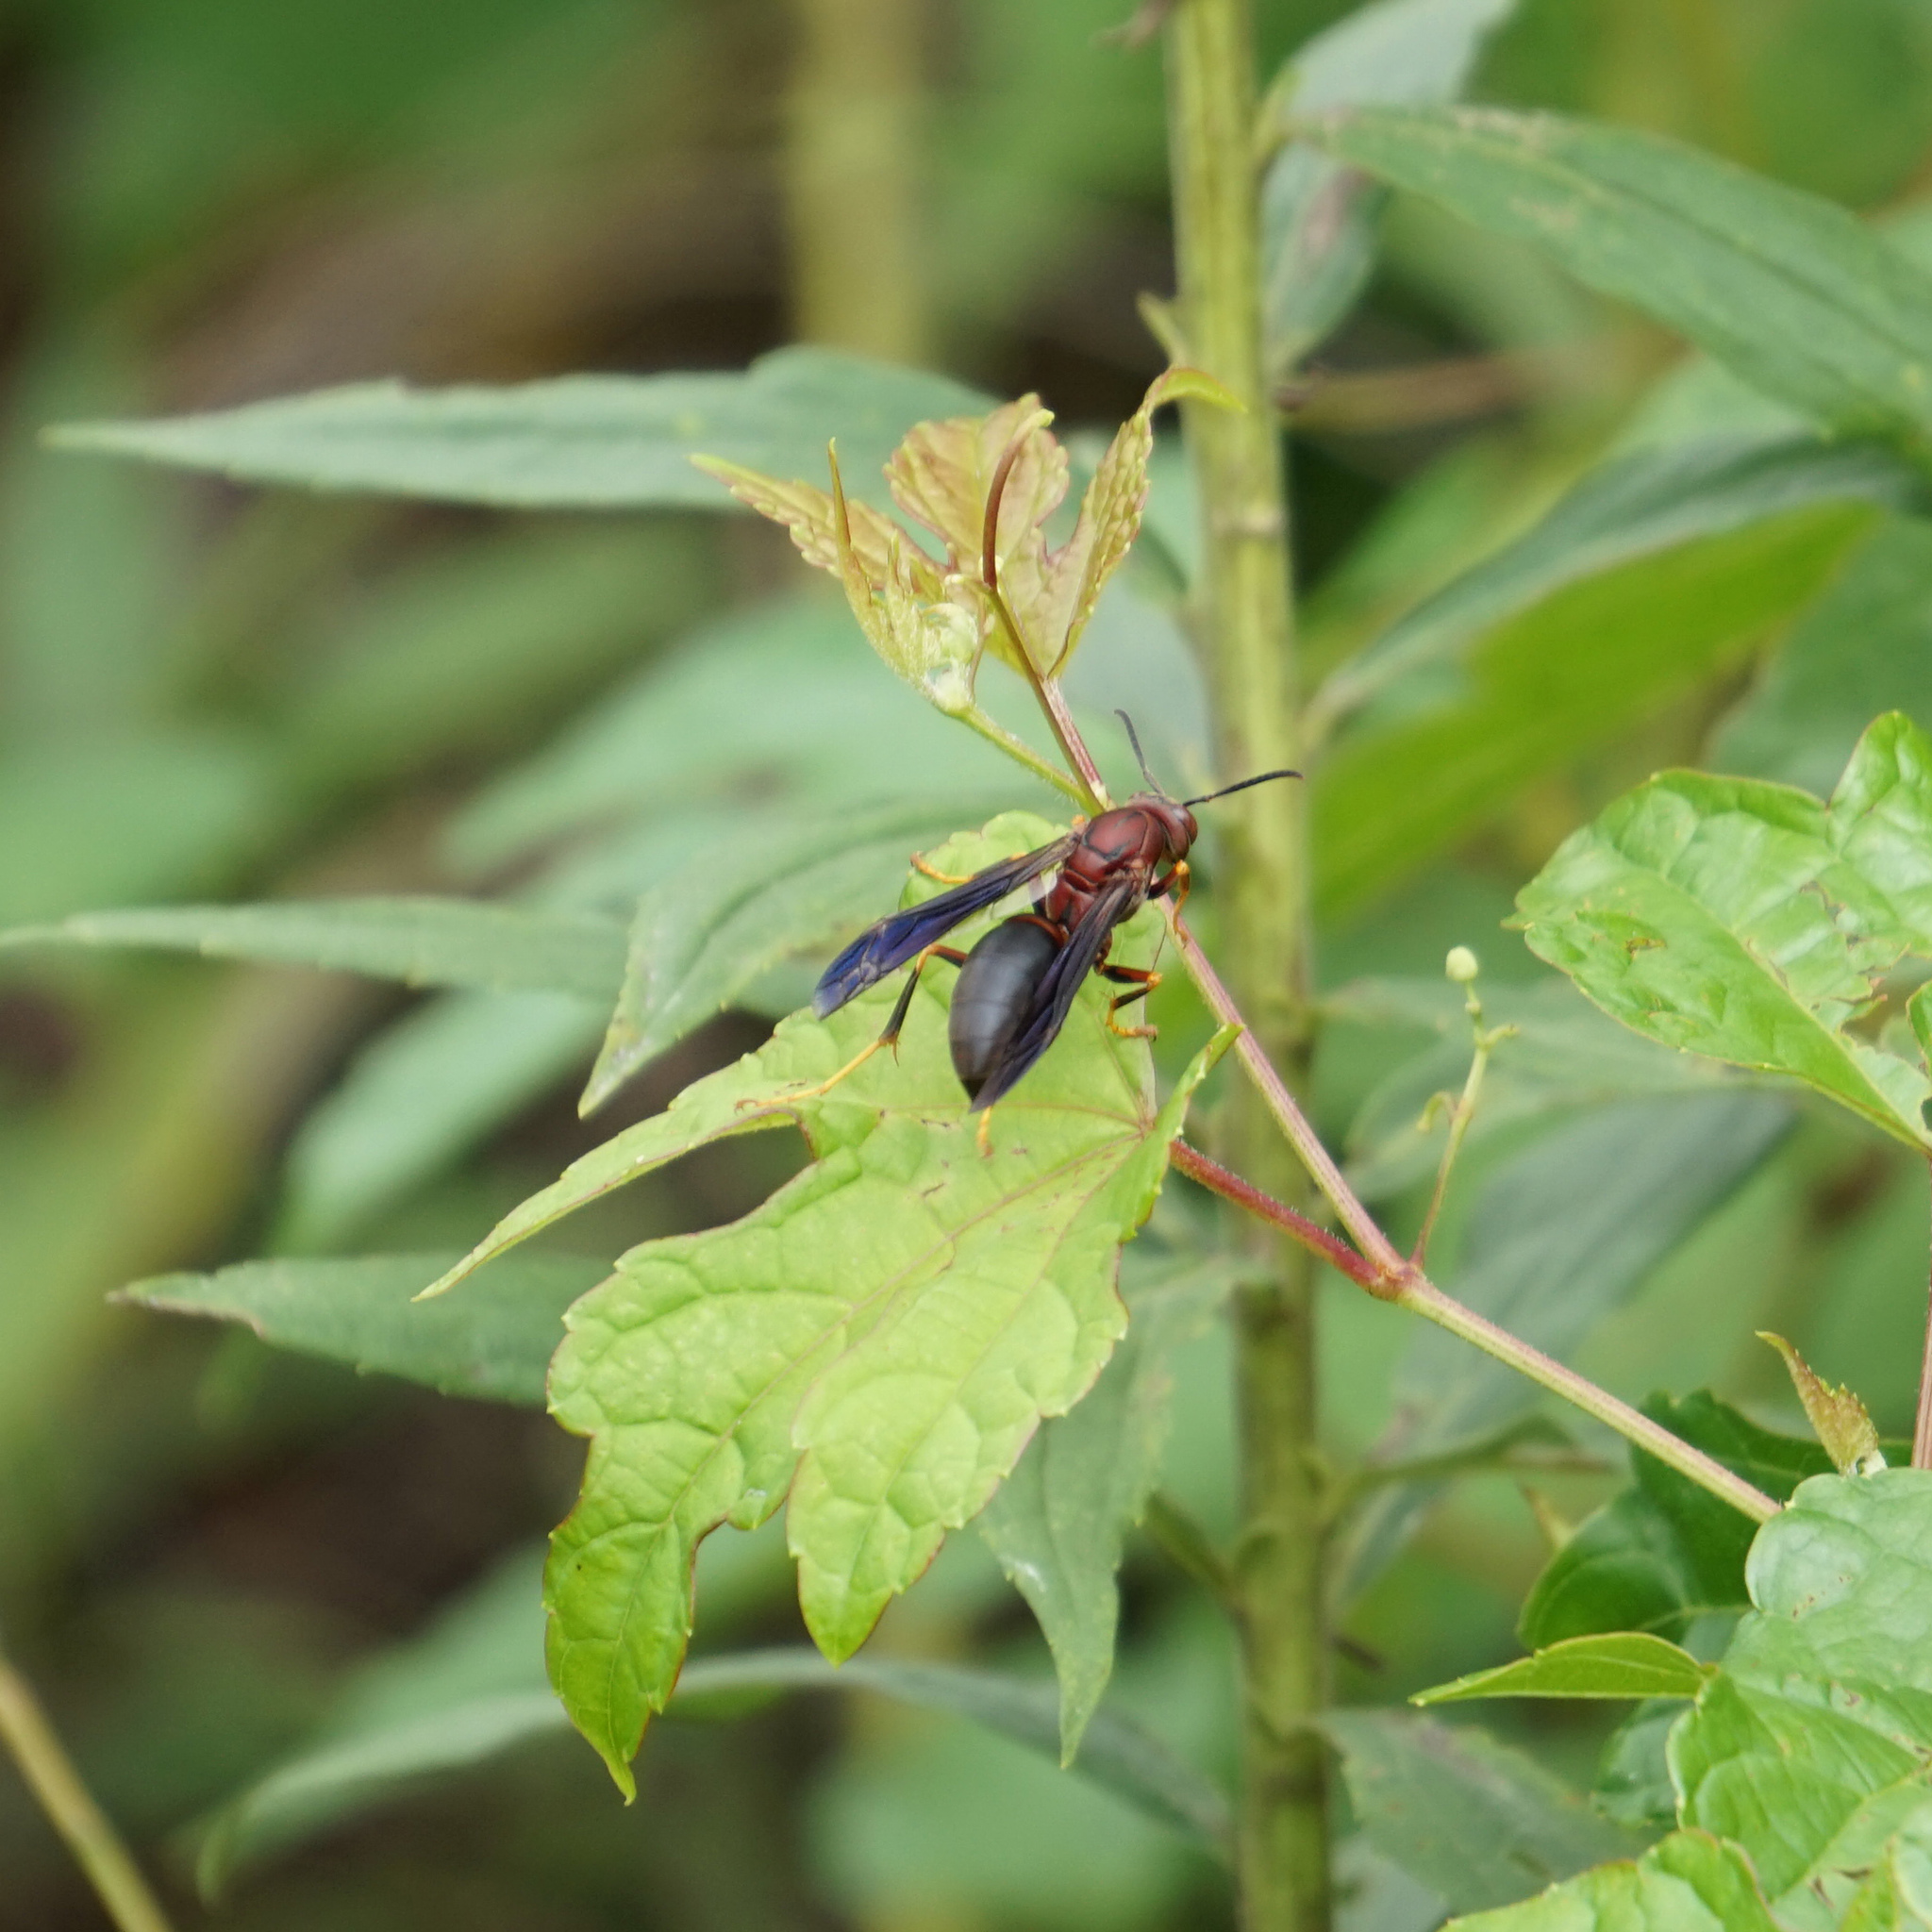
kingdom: Animalia
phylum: Arthropoda
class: Insecta
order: Hymenoptera
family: Eumenidae
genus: Polistes
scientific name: Polistes metricus
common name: Metric paper wasp
